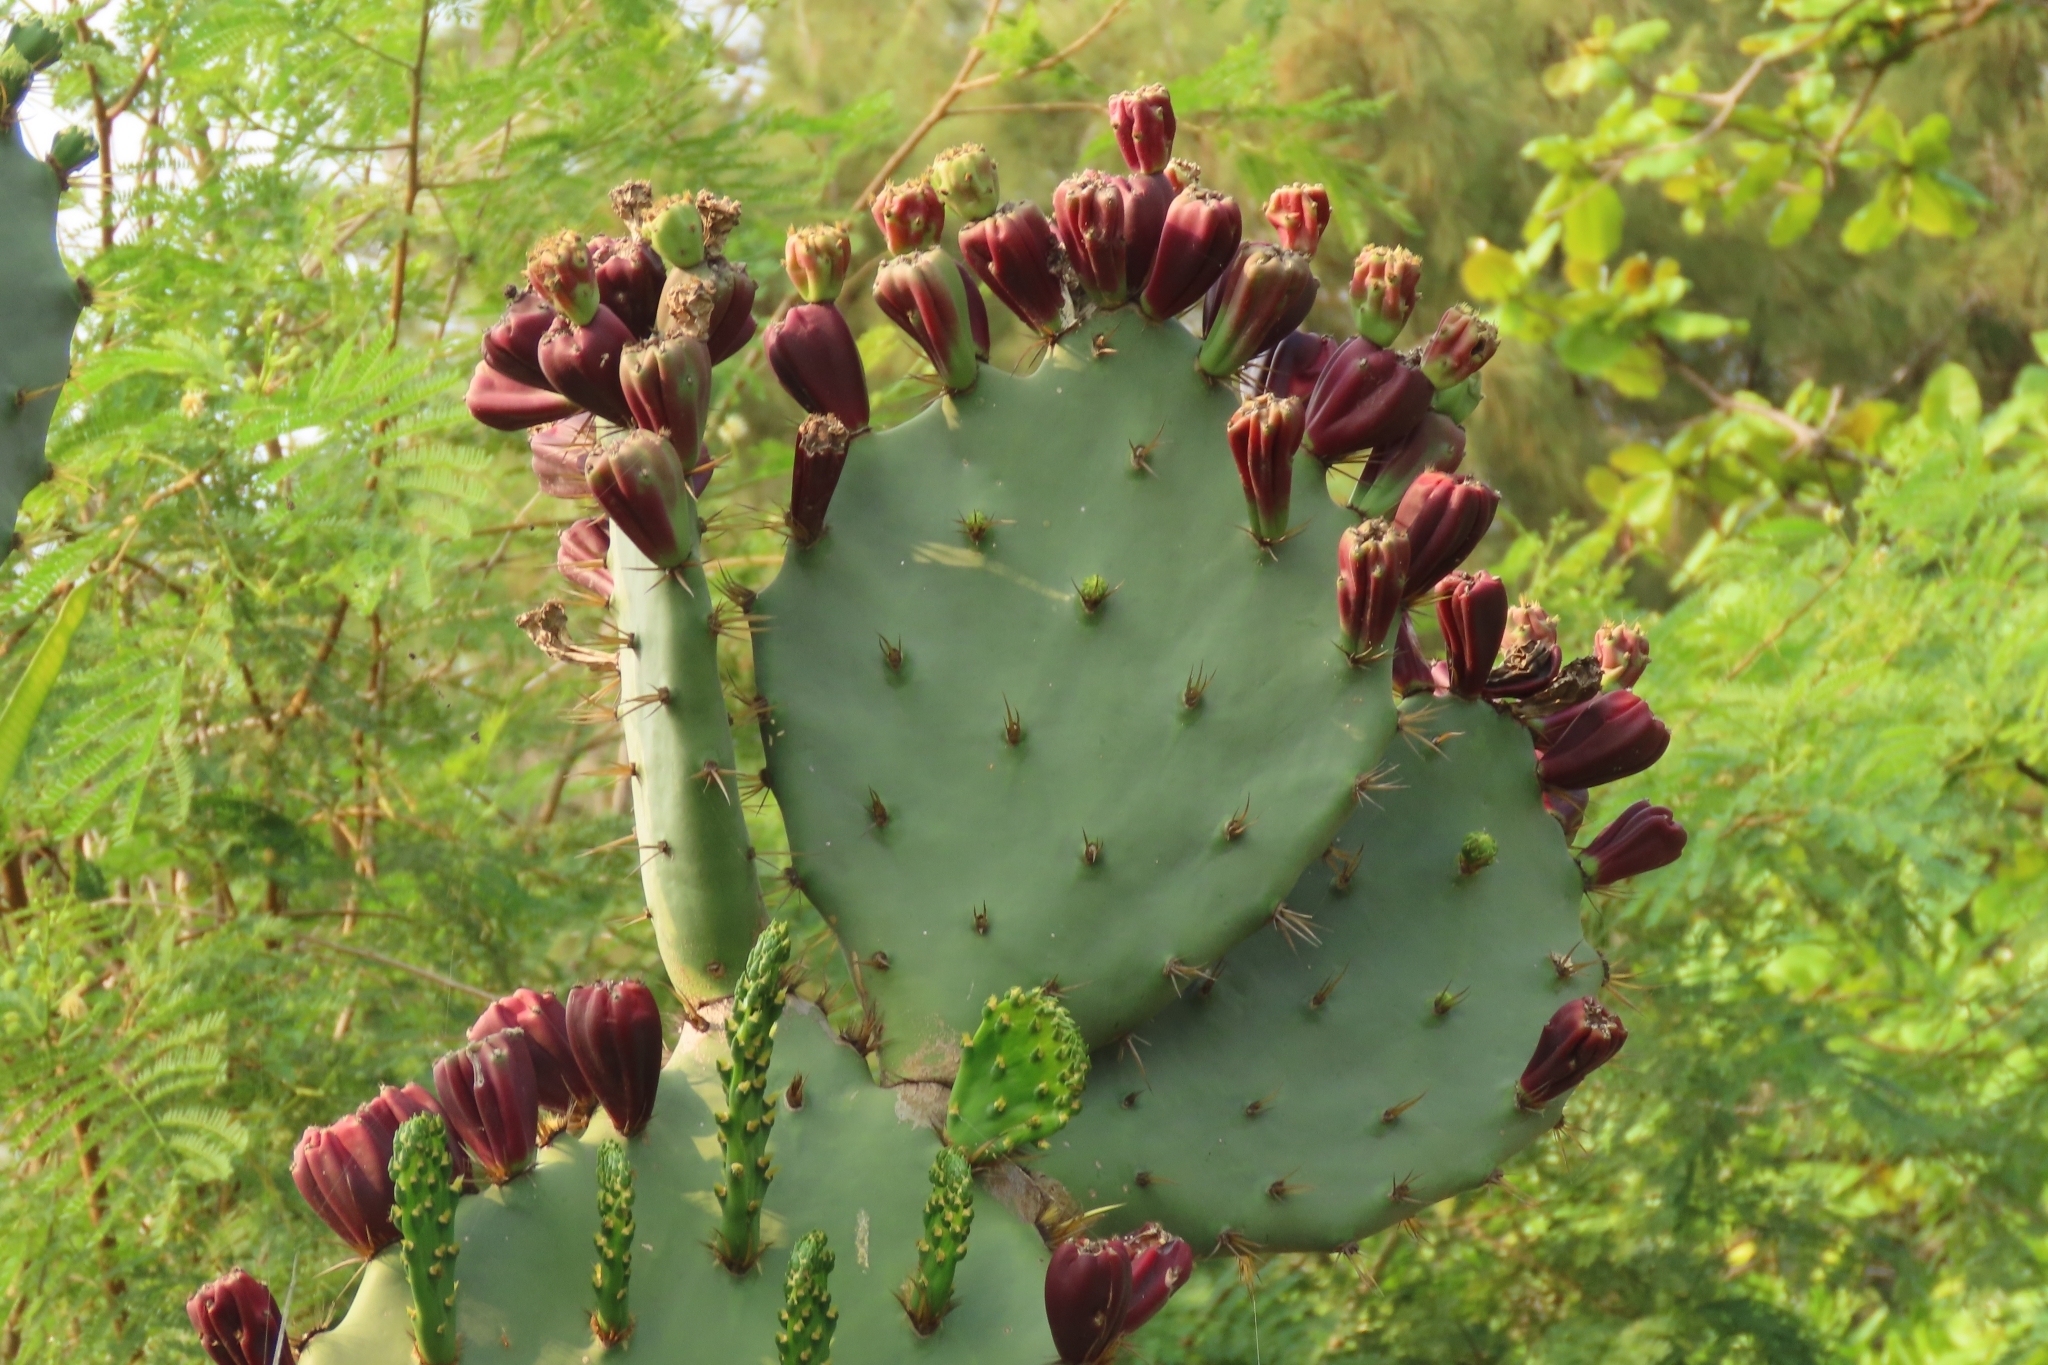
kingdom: Plantae
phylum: Tracheophyta
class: Magnoliopsida
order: Caryophyllales
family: Cactaceae
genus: Opuntia
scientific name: Opuntia dillenii
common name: Sour prickle
